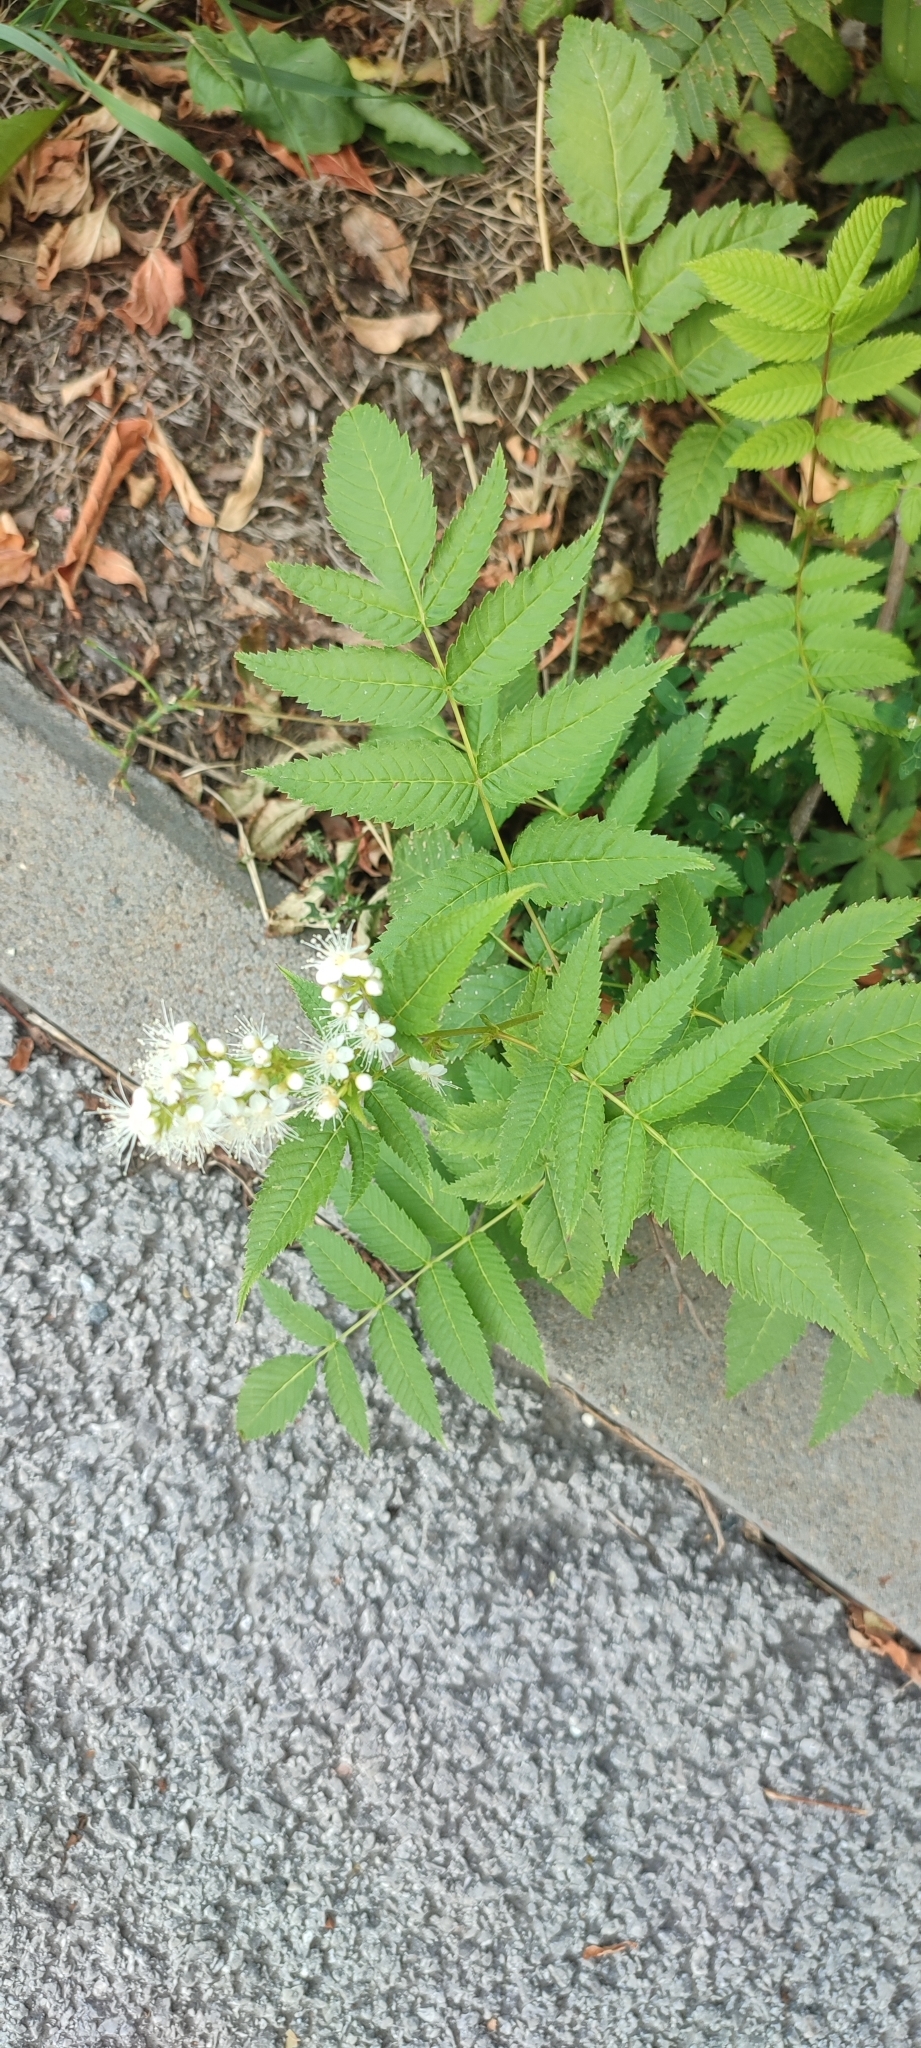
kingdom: Plantae
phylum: Tracheophyta
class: Magnoliopsida
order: Rosales
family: Rosaceae
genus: Sorbaria
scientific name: Sorbaria sorbifolia
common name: False spiraea
